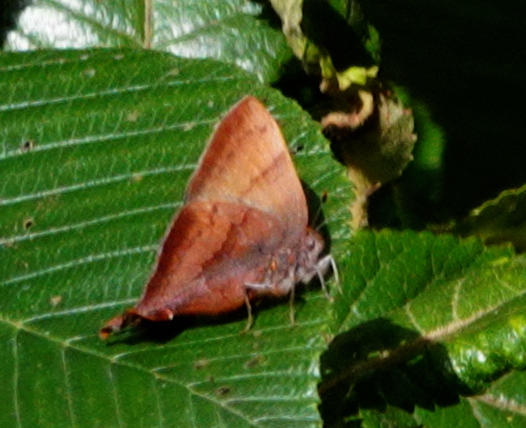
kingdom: Animalia
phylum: Arthropoda
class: Insecta
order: Lepidoptera
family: Lycaenidae
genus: Penaincisalia
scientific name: Penaincisalia
